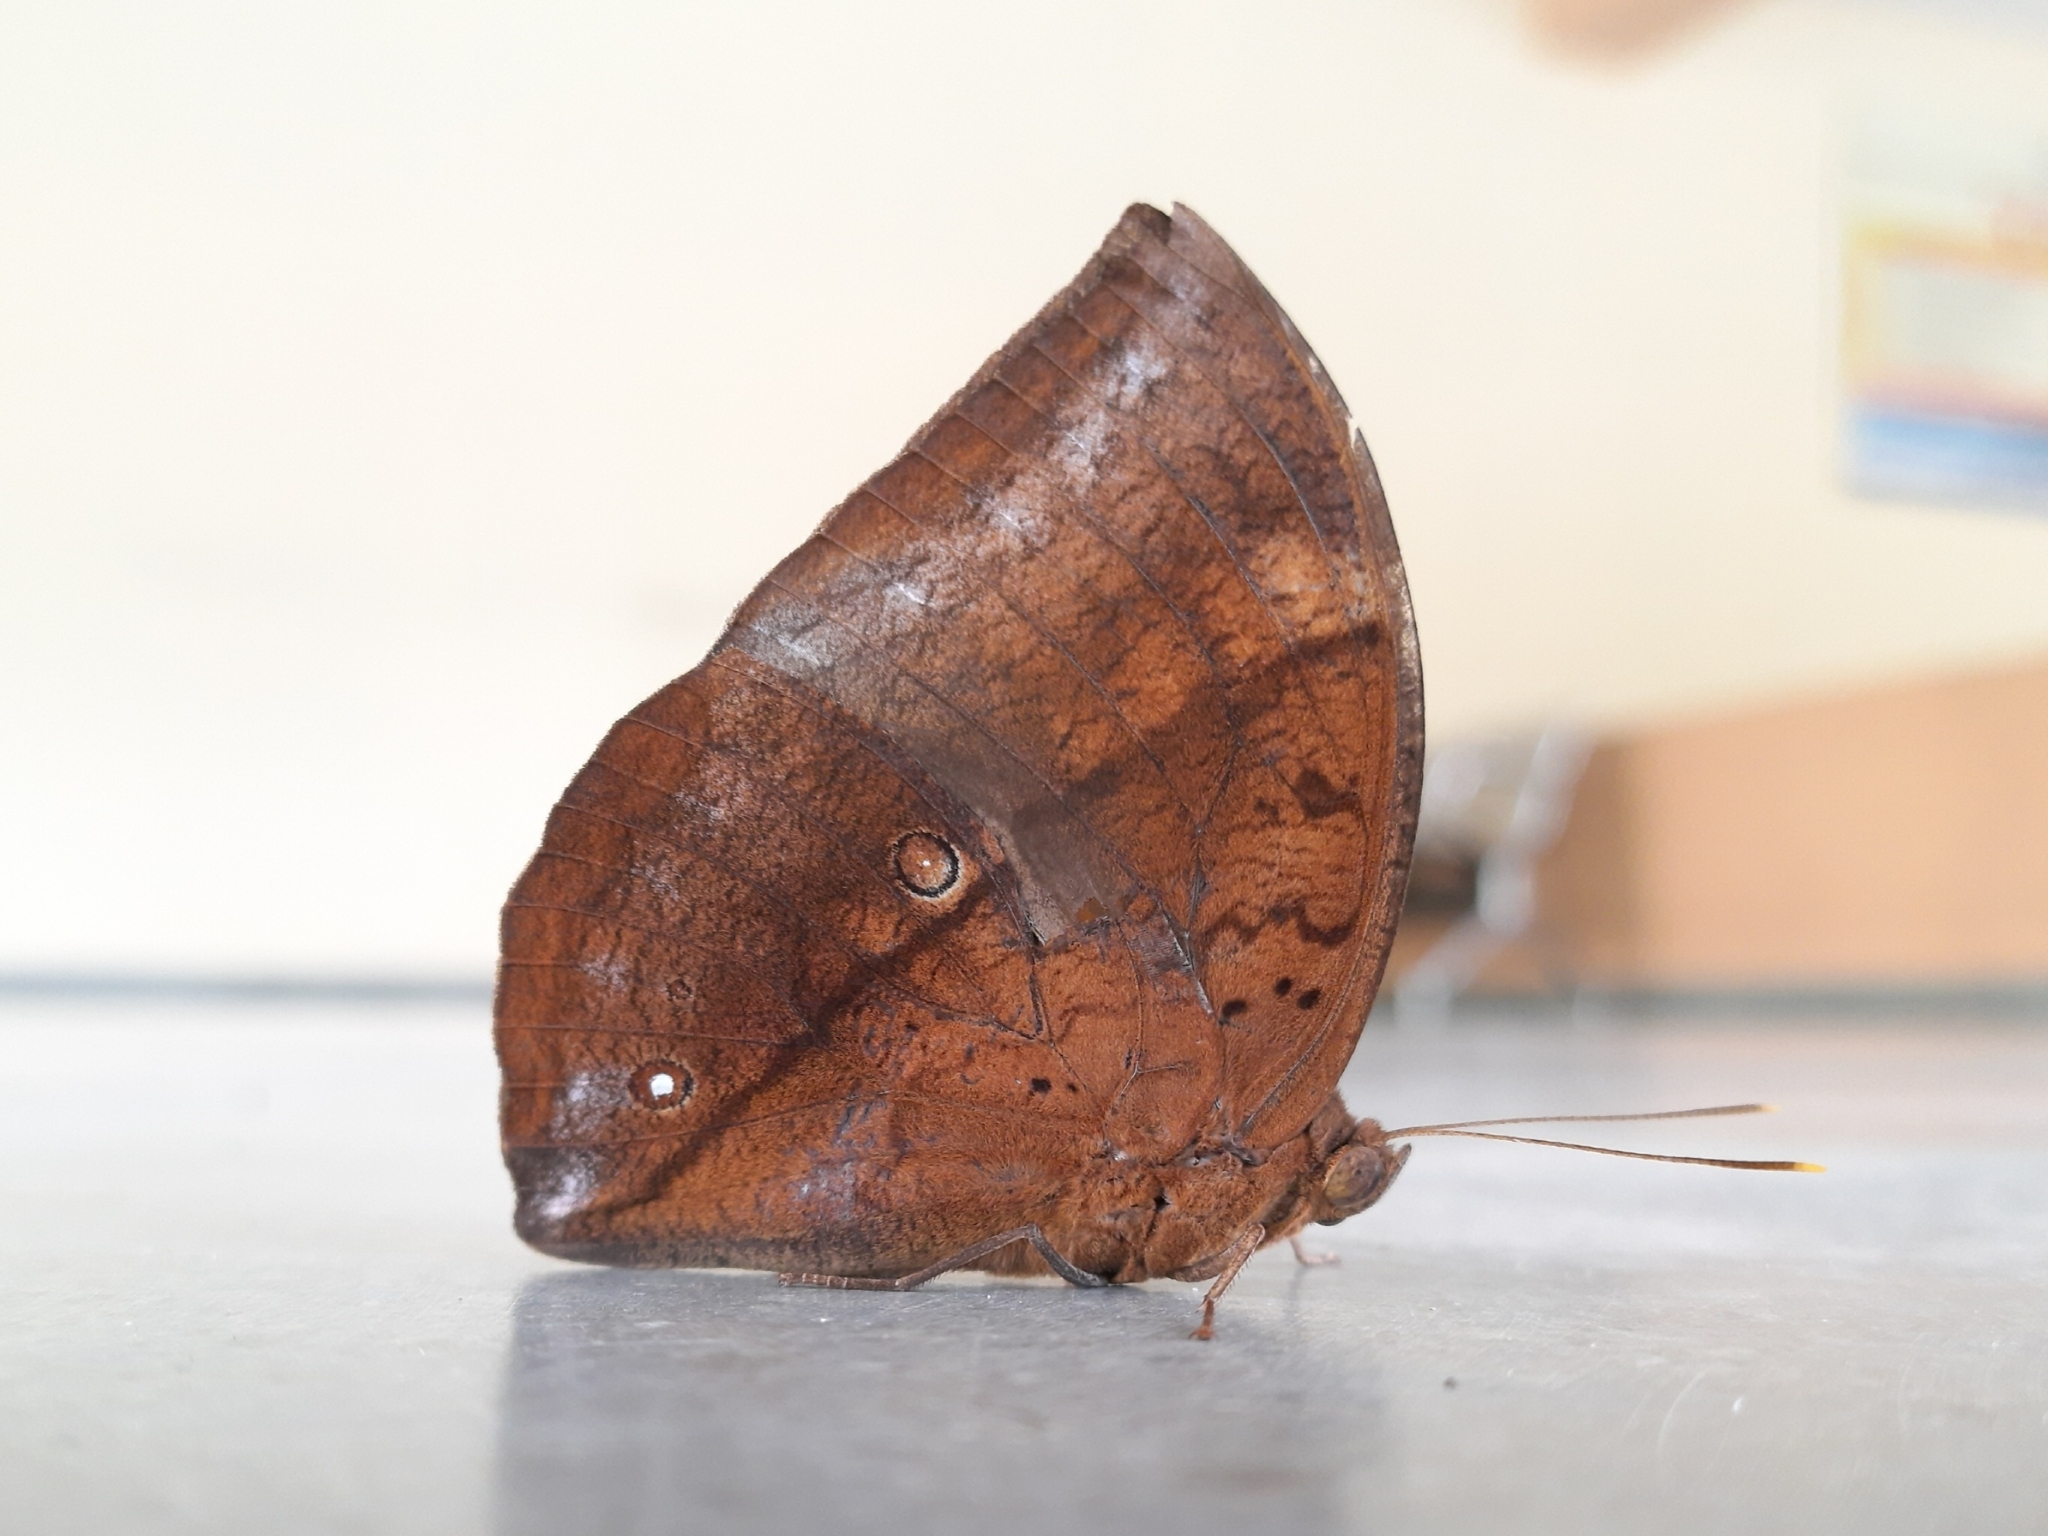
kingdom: Animalia
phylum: Arthropoda
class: Insecta
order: Lepidoptera
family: Nymphalidae
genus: Discophora
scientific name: Discophora lepida
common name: Southern duffer
